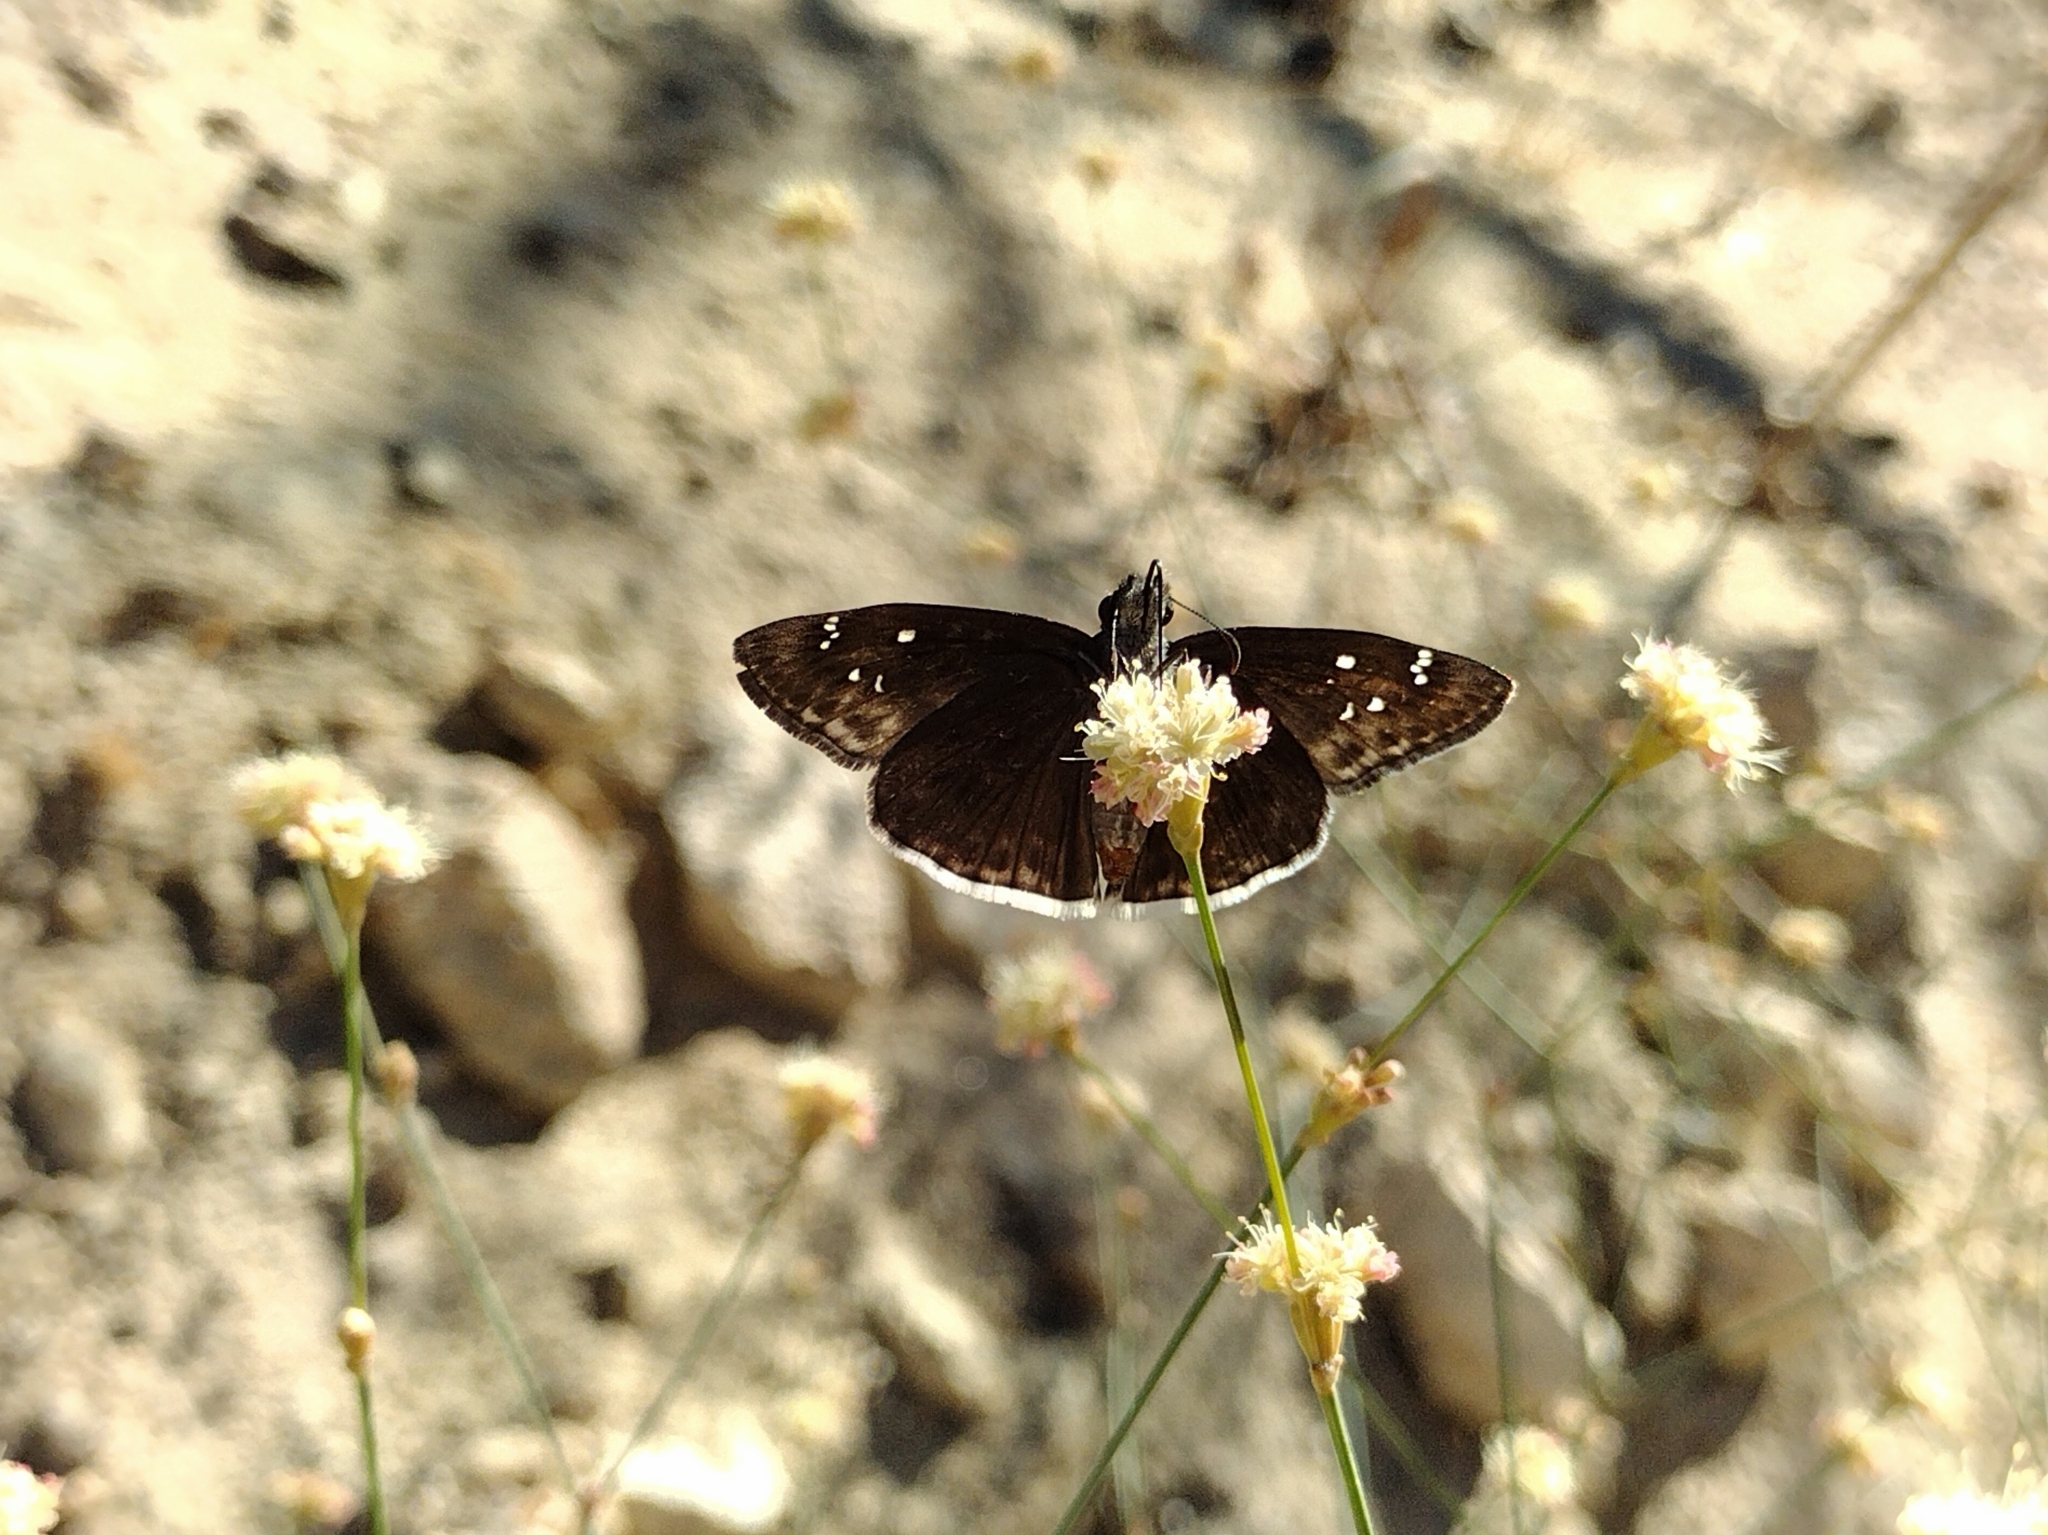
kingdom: Animalia
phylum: Arthropoda
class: Insecta
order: Lepidoptera
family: Hesperiidae
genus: Erynnis
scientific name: Erynnis tristis
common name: Mournful duskywing
